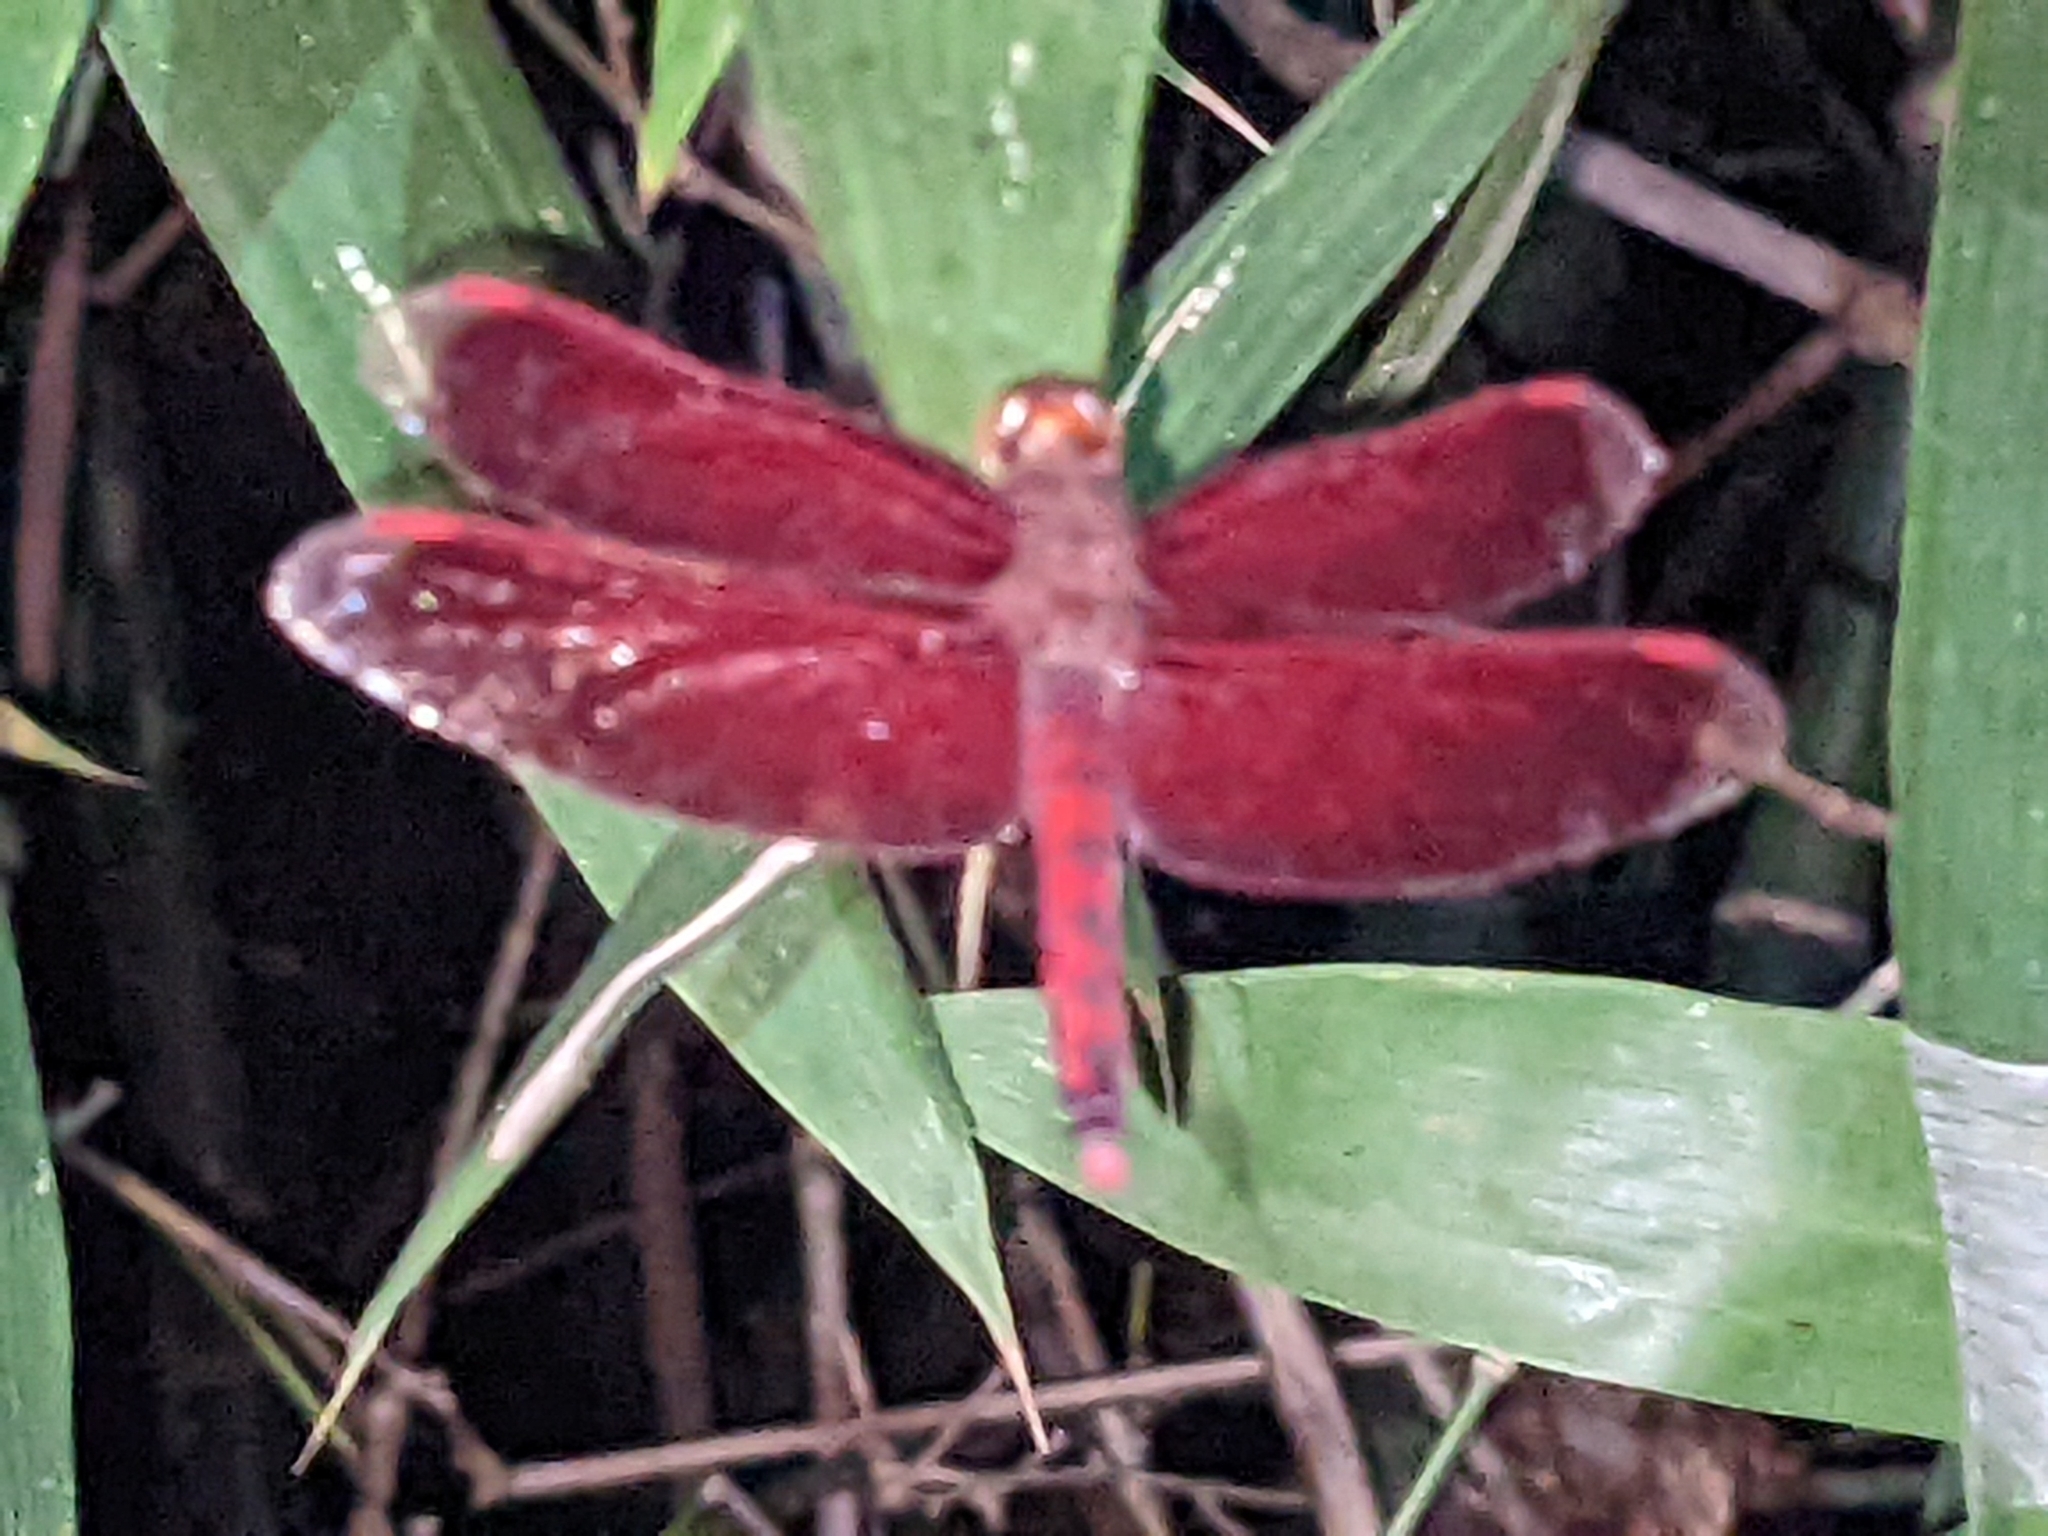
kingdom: Animalia
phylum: Arthropoda
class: Insecta
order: Odonata
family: Libellulidae
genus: Neurothemis
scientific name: Neurothemis taiwanensis
